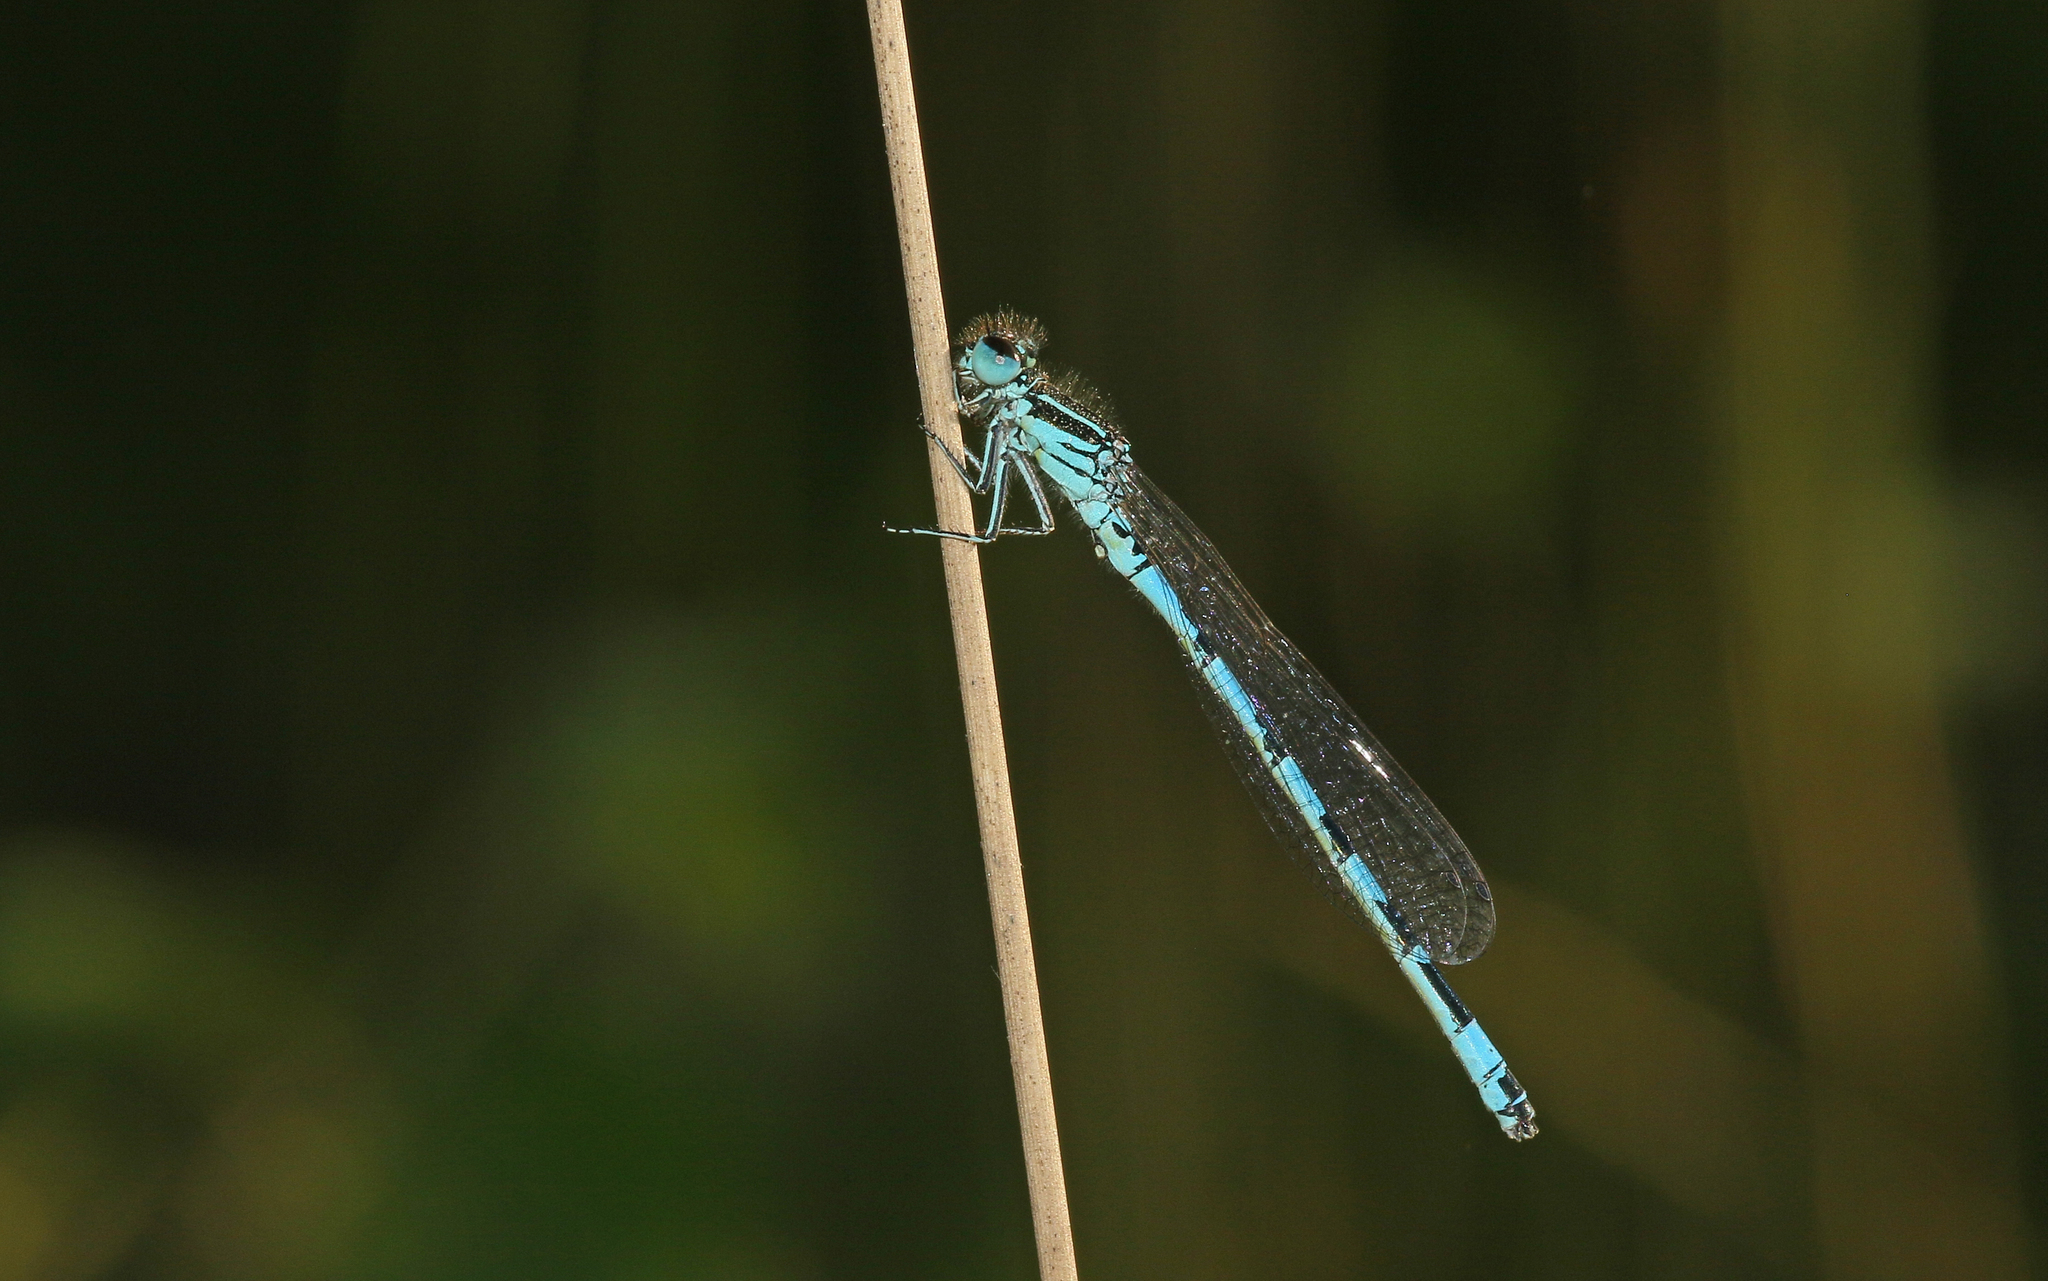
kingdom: Animalia
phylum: Arthropoda
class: Insecta
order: Odonata
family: Coenagrionidae
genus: Coenagrion
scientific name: Coenagrion mercuriale
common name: Southern damselfly
